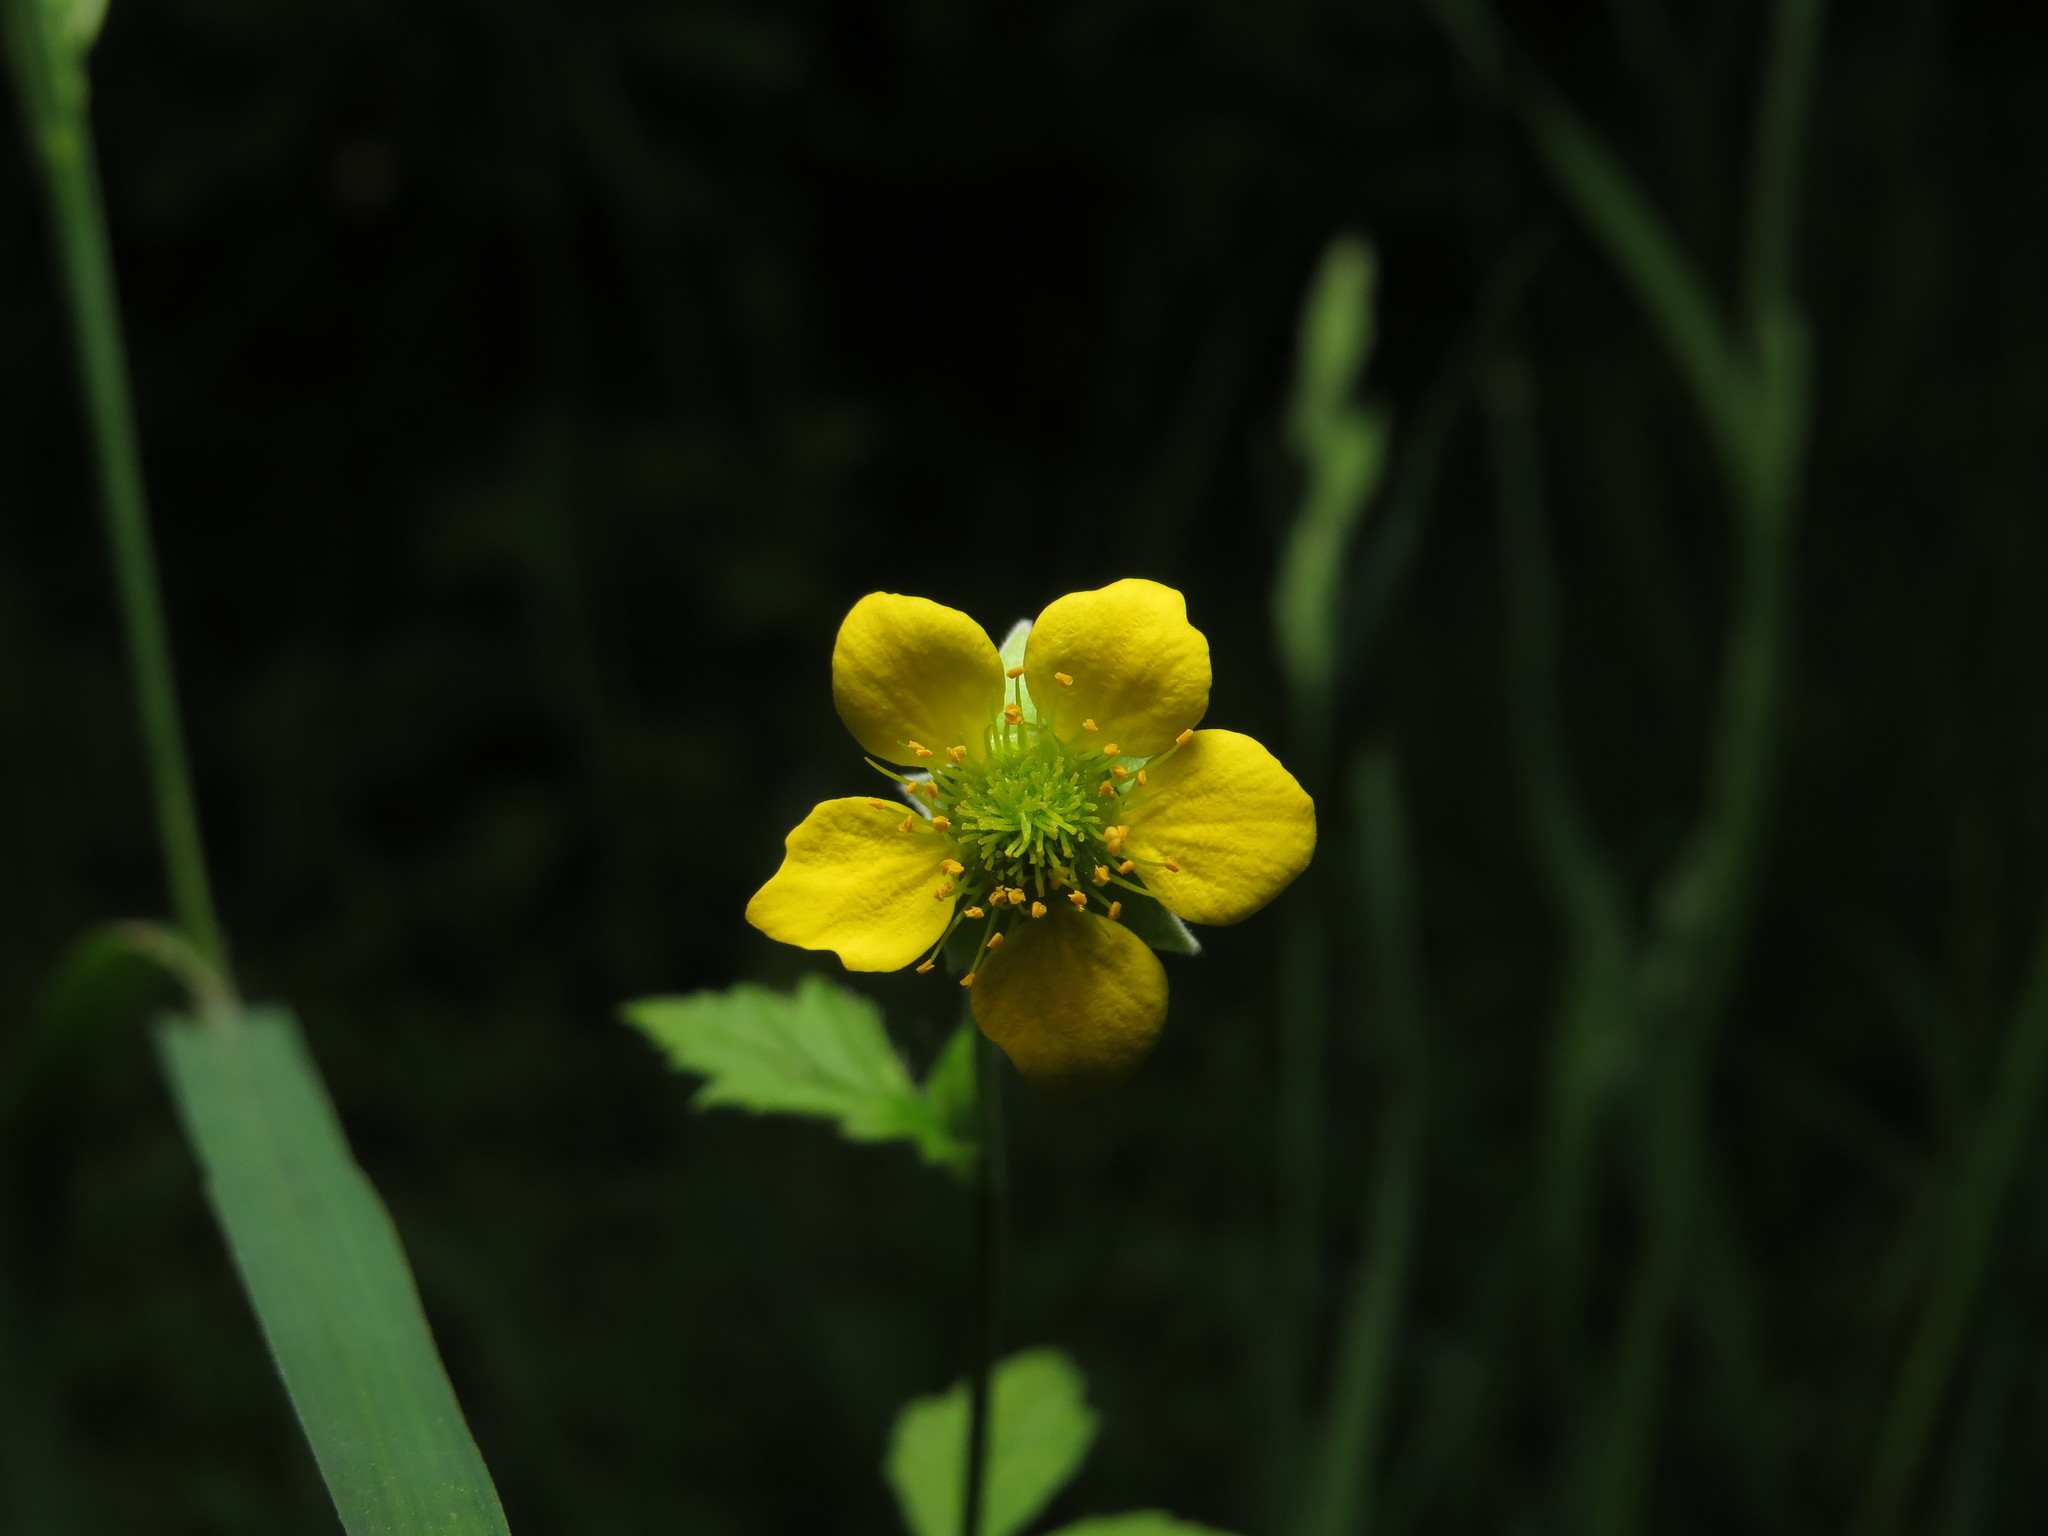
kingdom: Plantae
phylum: Tracheophyta
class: Magnoliopsida
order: Rosales
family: Rosaceae
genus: Geum
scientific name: Geum urbanum
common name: Wood avens
